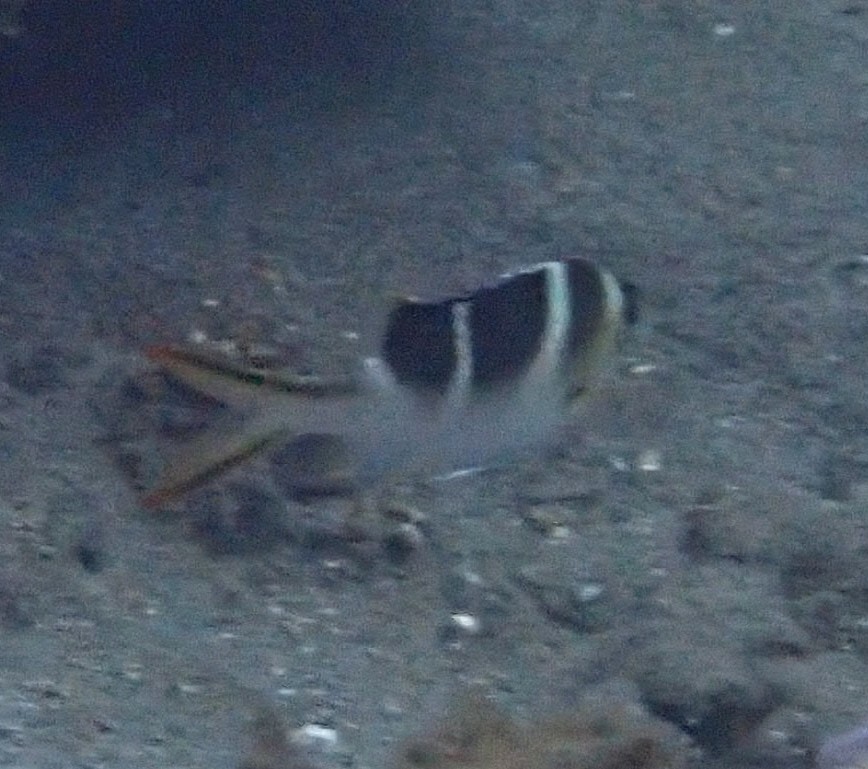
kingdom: Animalia
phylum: Chordata
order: Perciformes
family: Lethrinidae
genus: Monotaxis
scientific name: Monotaxis grandoculis
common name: Bigeye emperor
